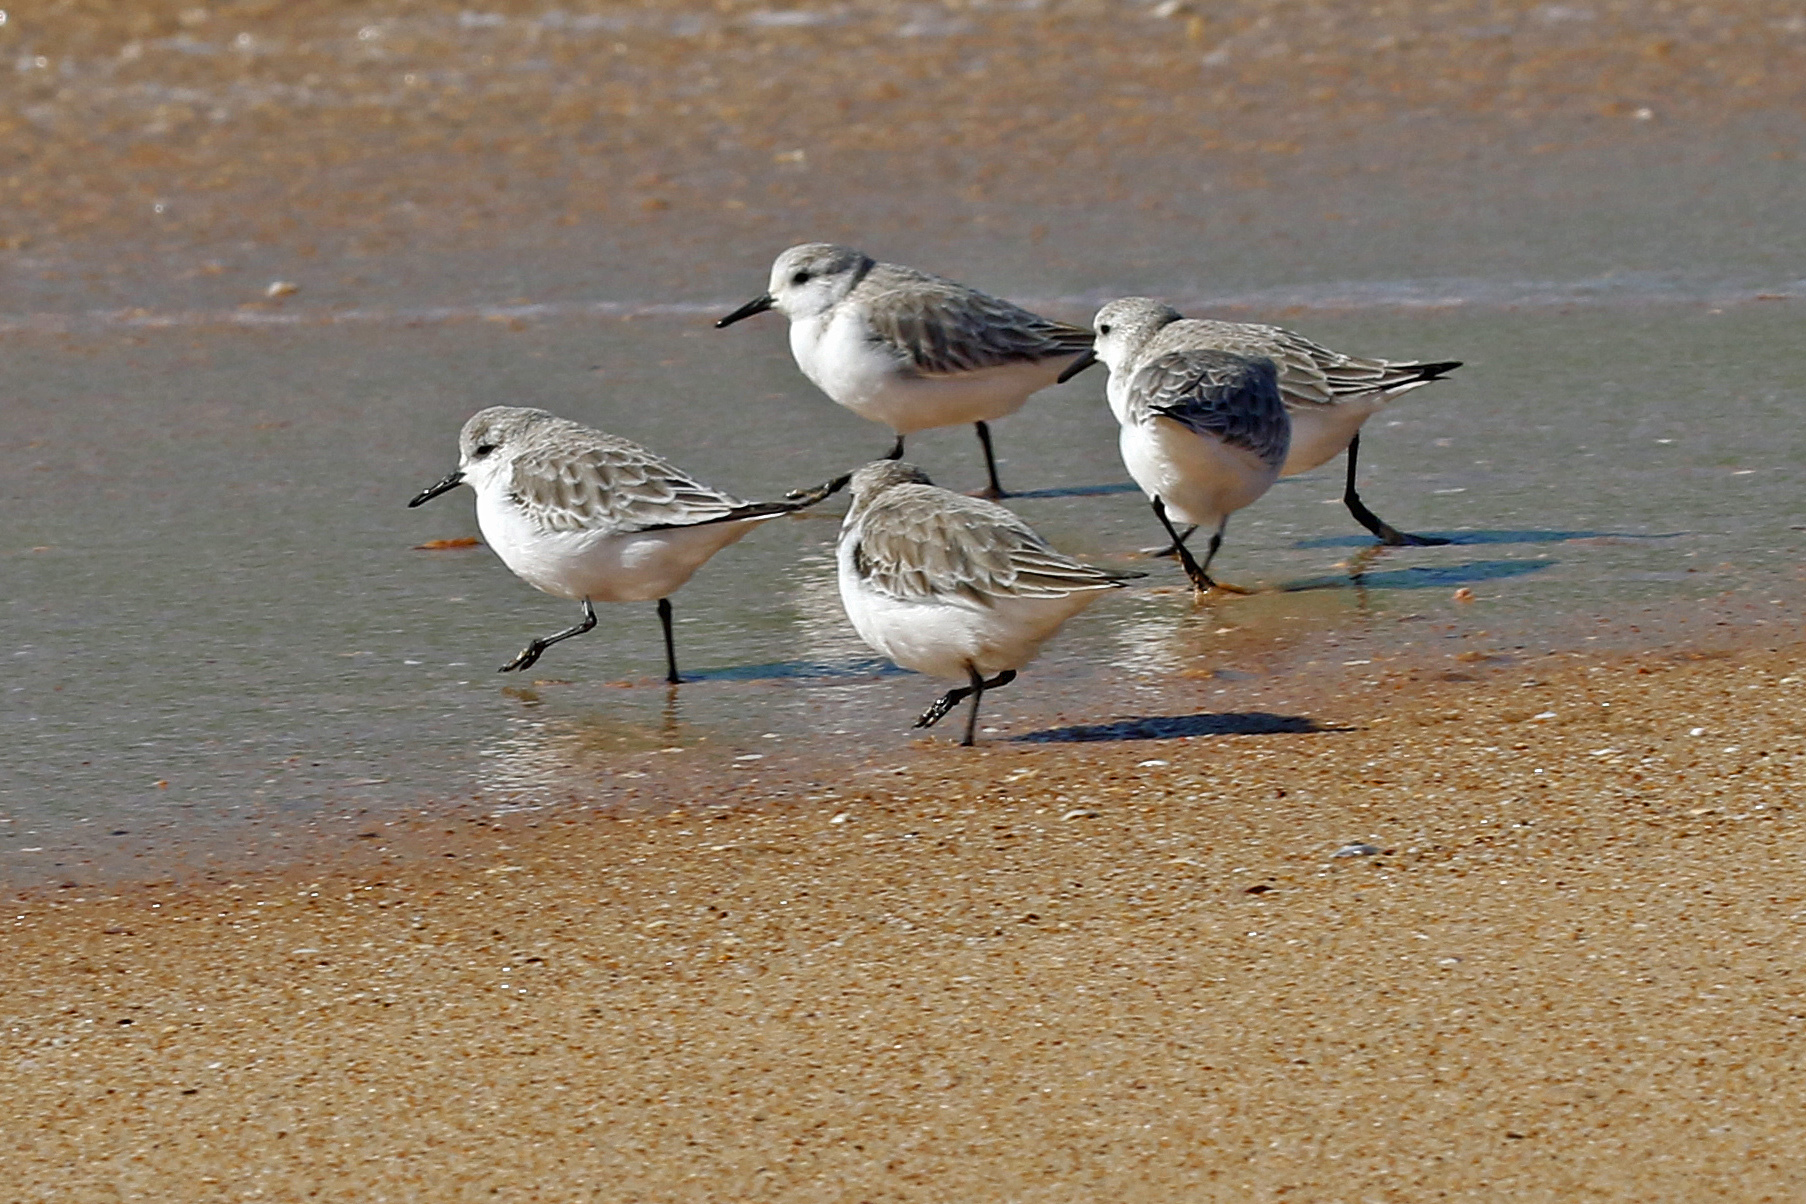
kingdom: Animalia
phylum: Chordata
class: Aves
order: Charadriiformes
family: Scolopacidae
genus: Calidris
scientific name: Calidris alba
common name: Sanderling
